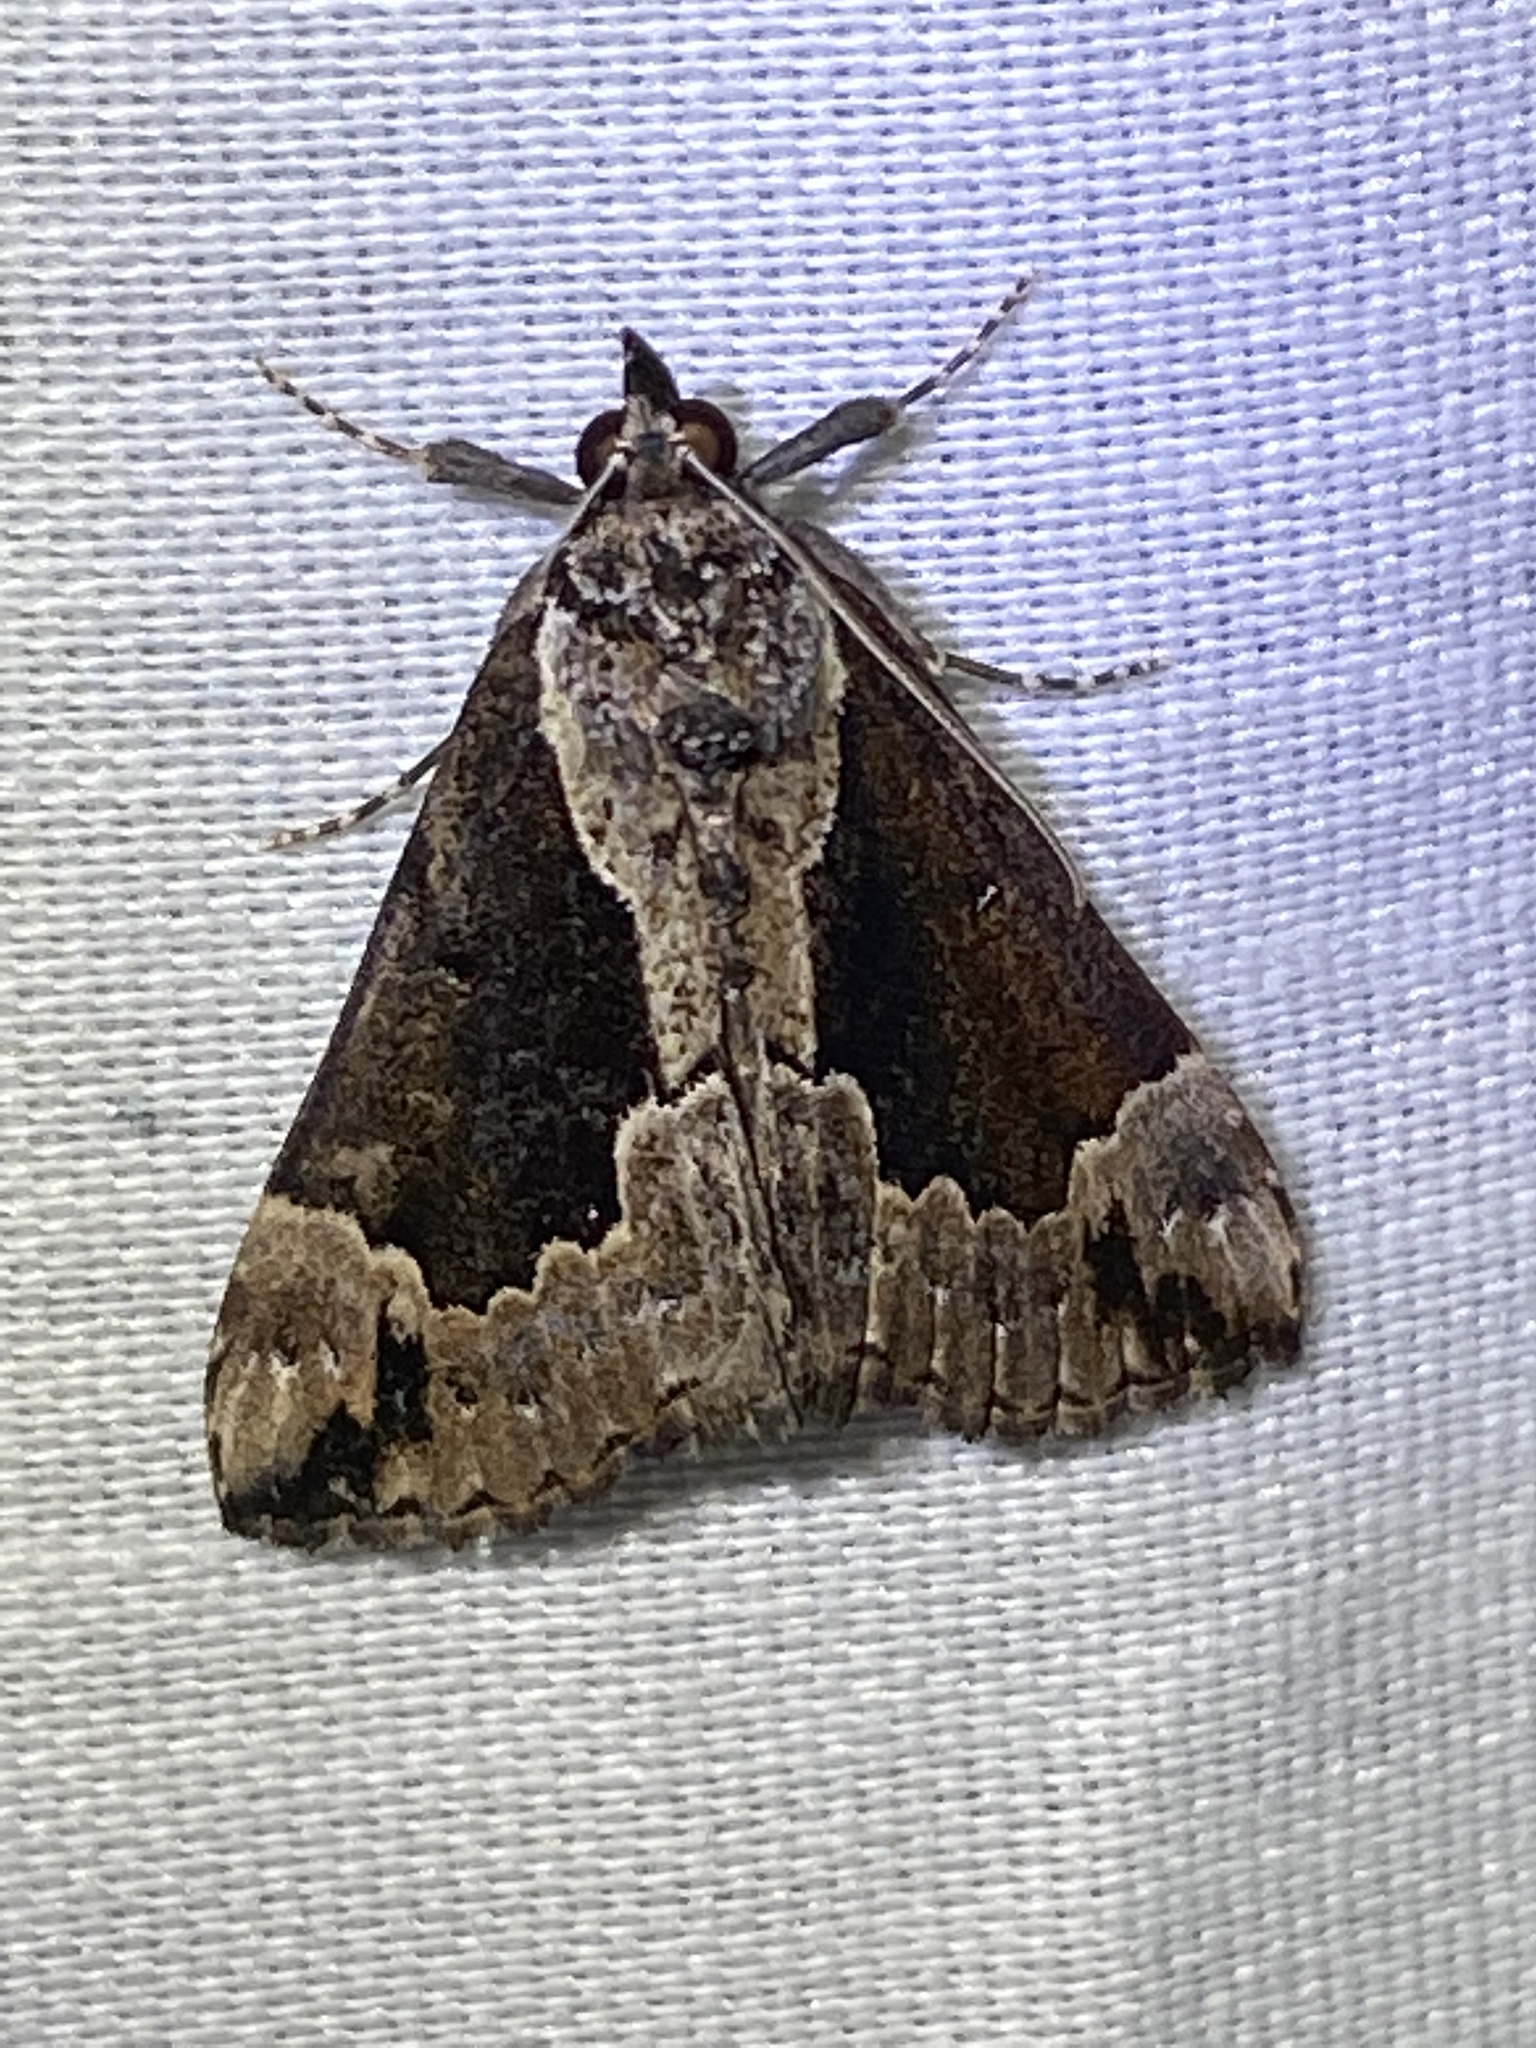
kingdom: Animalia
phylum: Arthropoda
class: Insecta
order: Lepidoptera
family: Erebidae
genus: Hypena
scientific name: Hypena baltimoralis
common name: Baltimore snout
